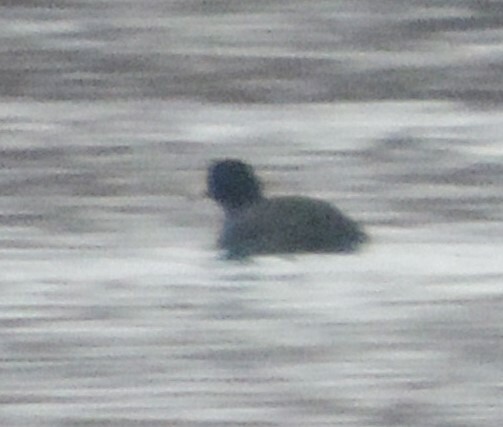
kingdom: Animalia
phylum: Chordata
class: Aves
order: Gruiformes
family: Rallidae
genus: Fulica
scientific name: Fulica americana
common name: American coot
